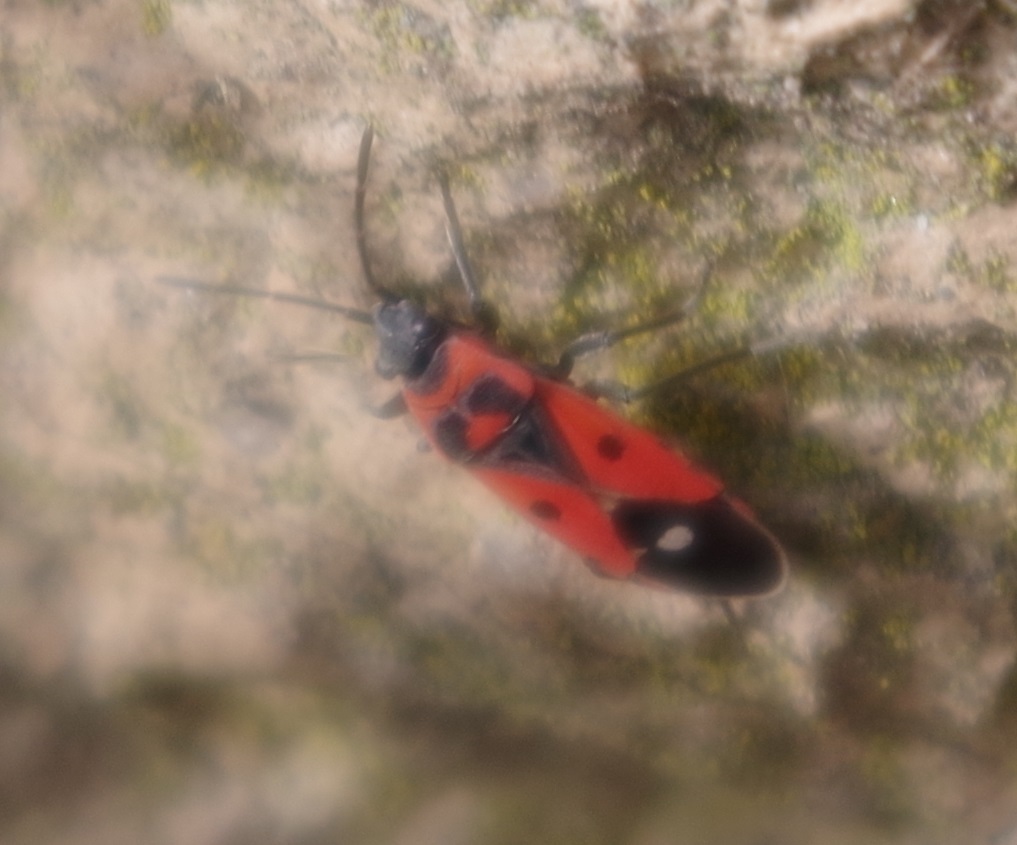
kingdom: Animalia
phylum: Arthropoda
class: Insecta
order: Hemiptera
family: Lygaeidae
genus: Melanocoryphus
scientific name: Melanocoryphus albomaculatus
